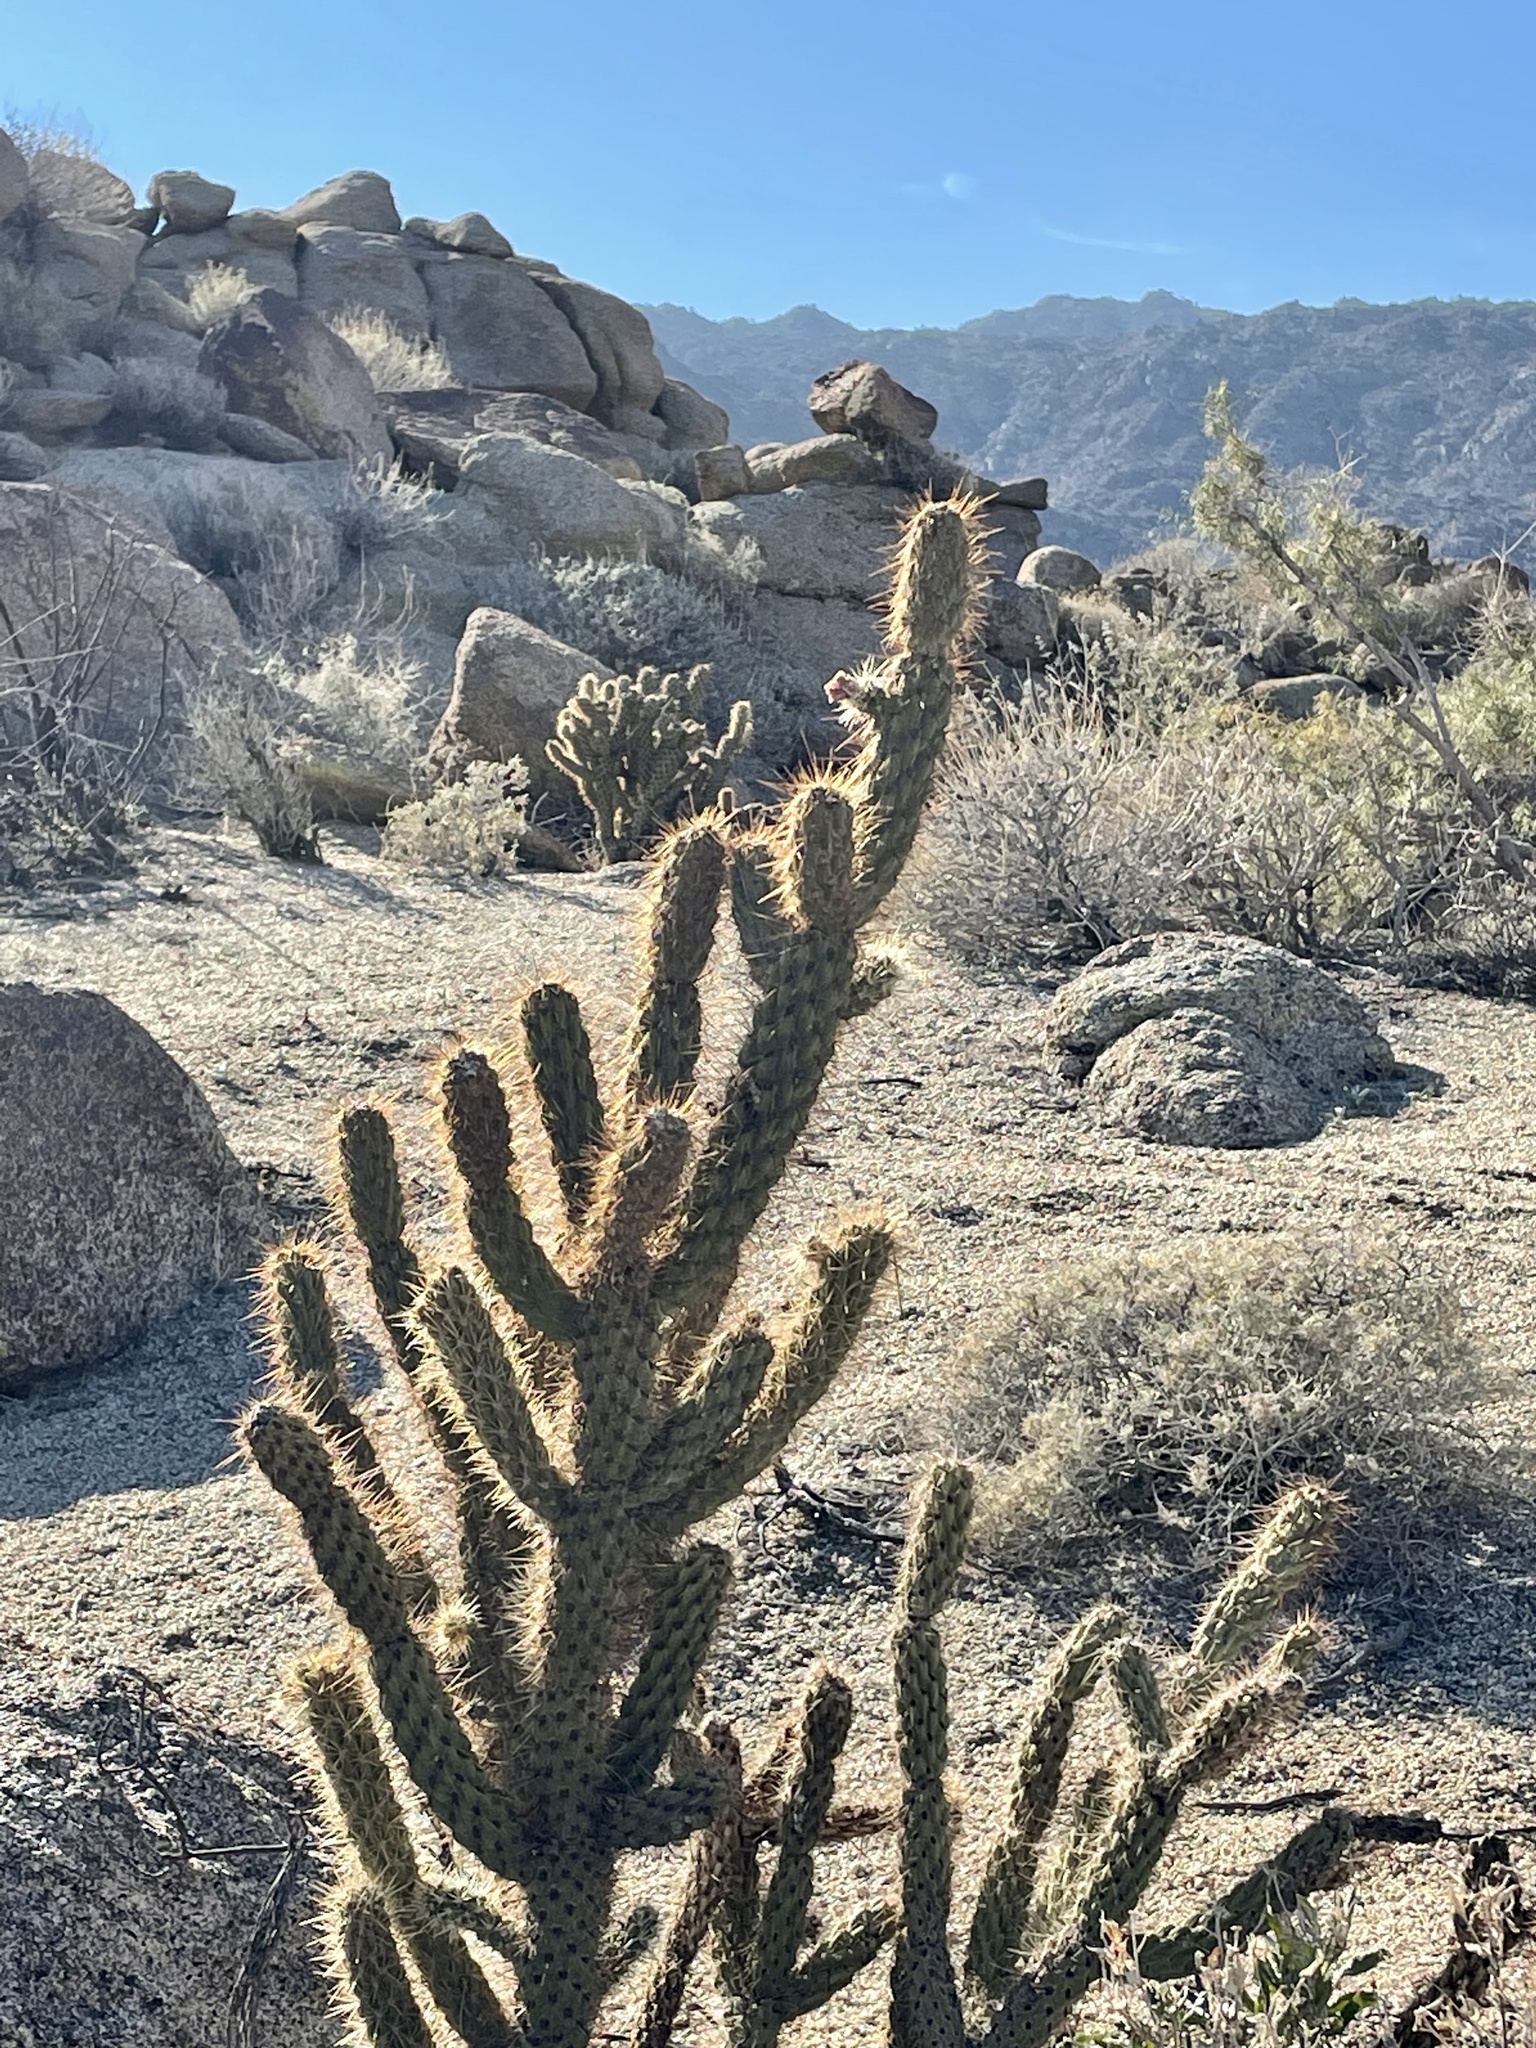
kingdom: Plantae
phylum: Tracheophyta
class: Magnoliopsida
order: Caryophyllales
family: Cactaceae
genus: Cylindropuntia
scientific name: Cylindropuntia ganderi
